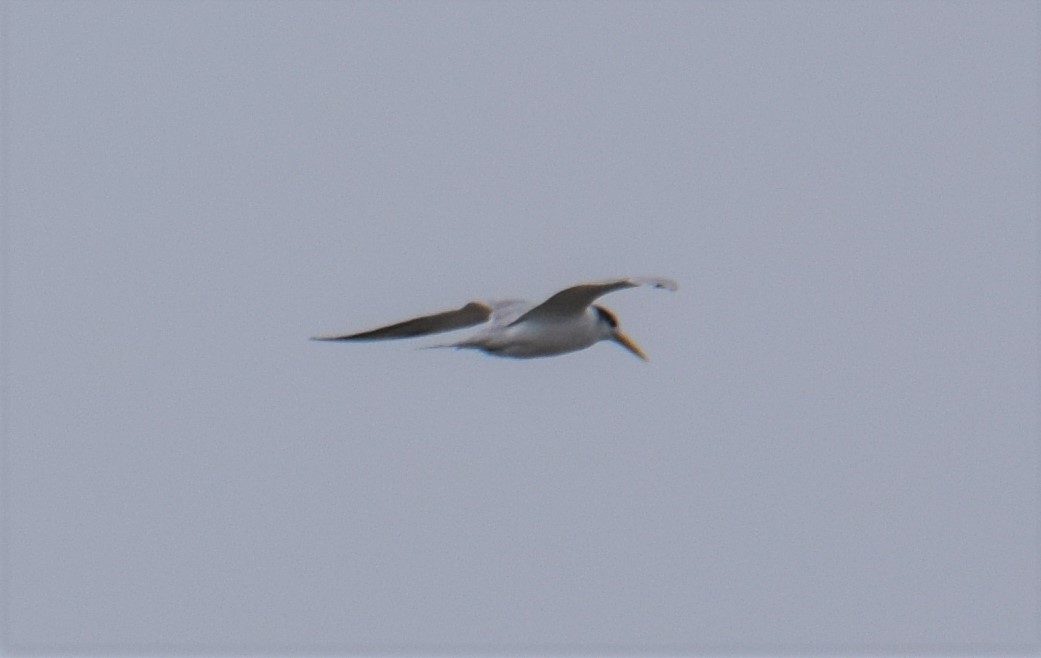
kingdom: Animalia
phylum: Chordata
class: Aves
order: Charadriiformes
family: Laridae
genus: Thalasseus
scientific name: Thalasseus bergii
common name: Greater crested tern
